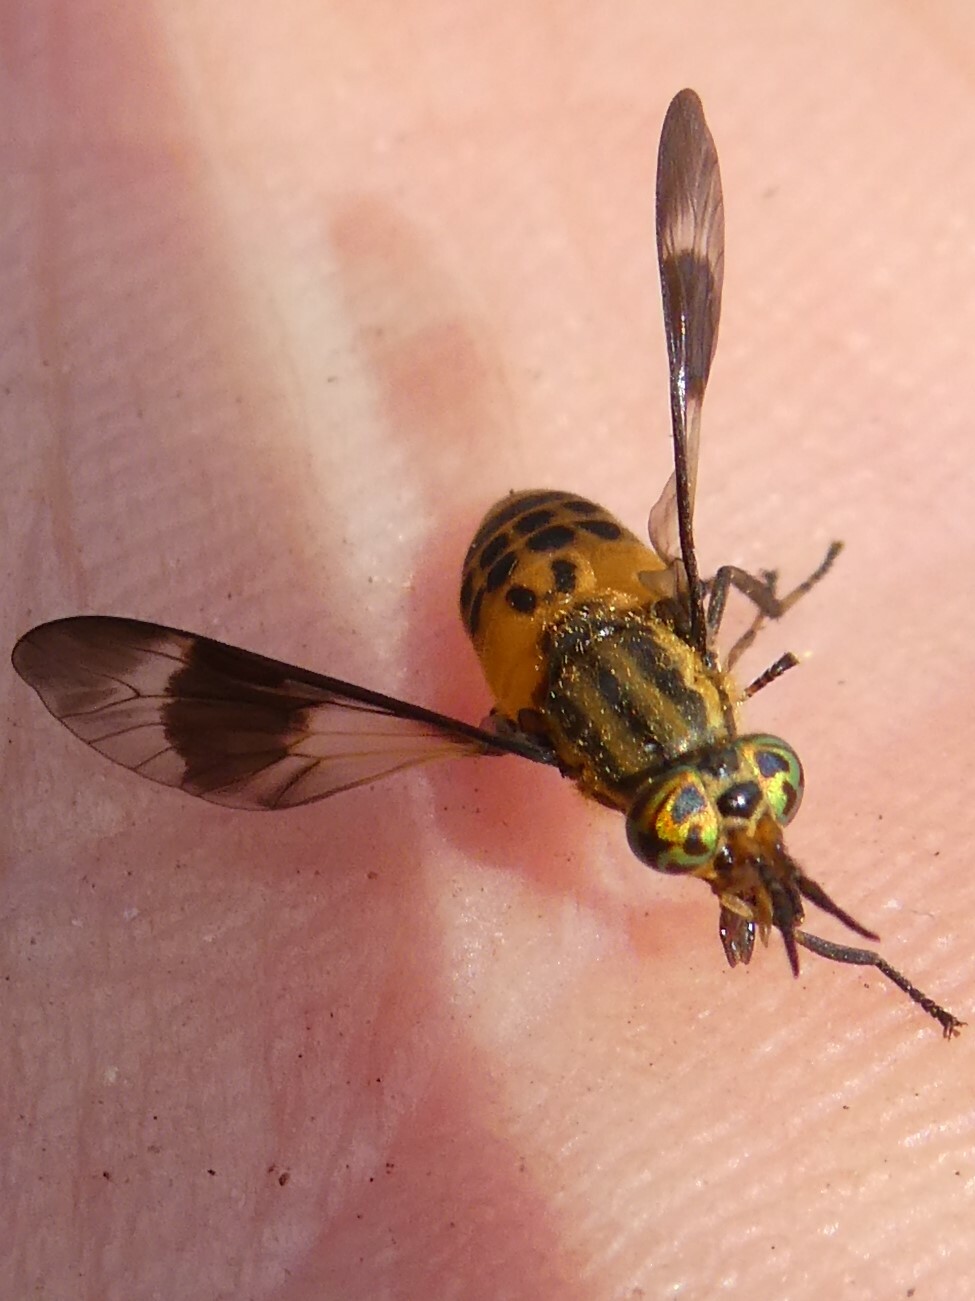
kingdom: Animalia
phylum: Arthropoda
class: Insecta
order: Diptera
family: Tabanidae
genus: Chrysops
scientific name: Chrysops geminatus
